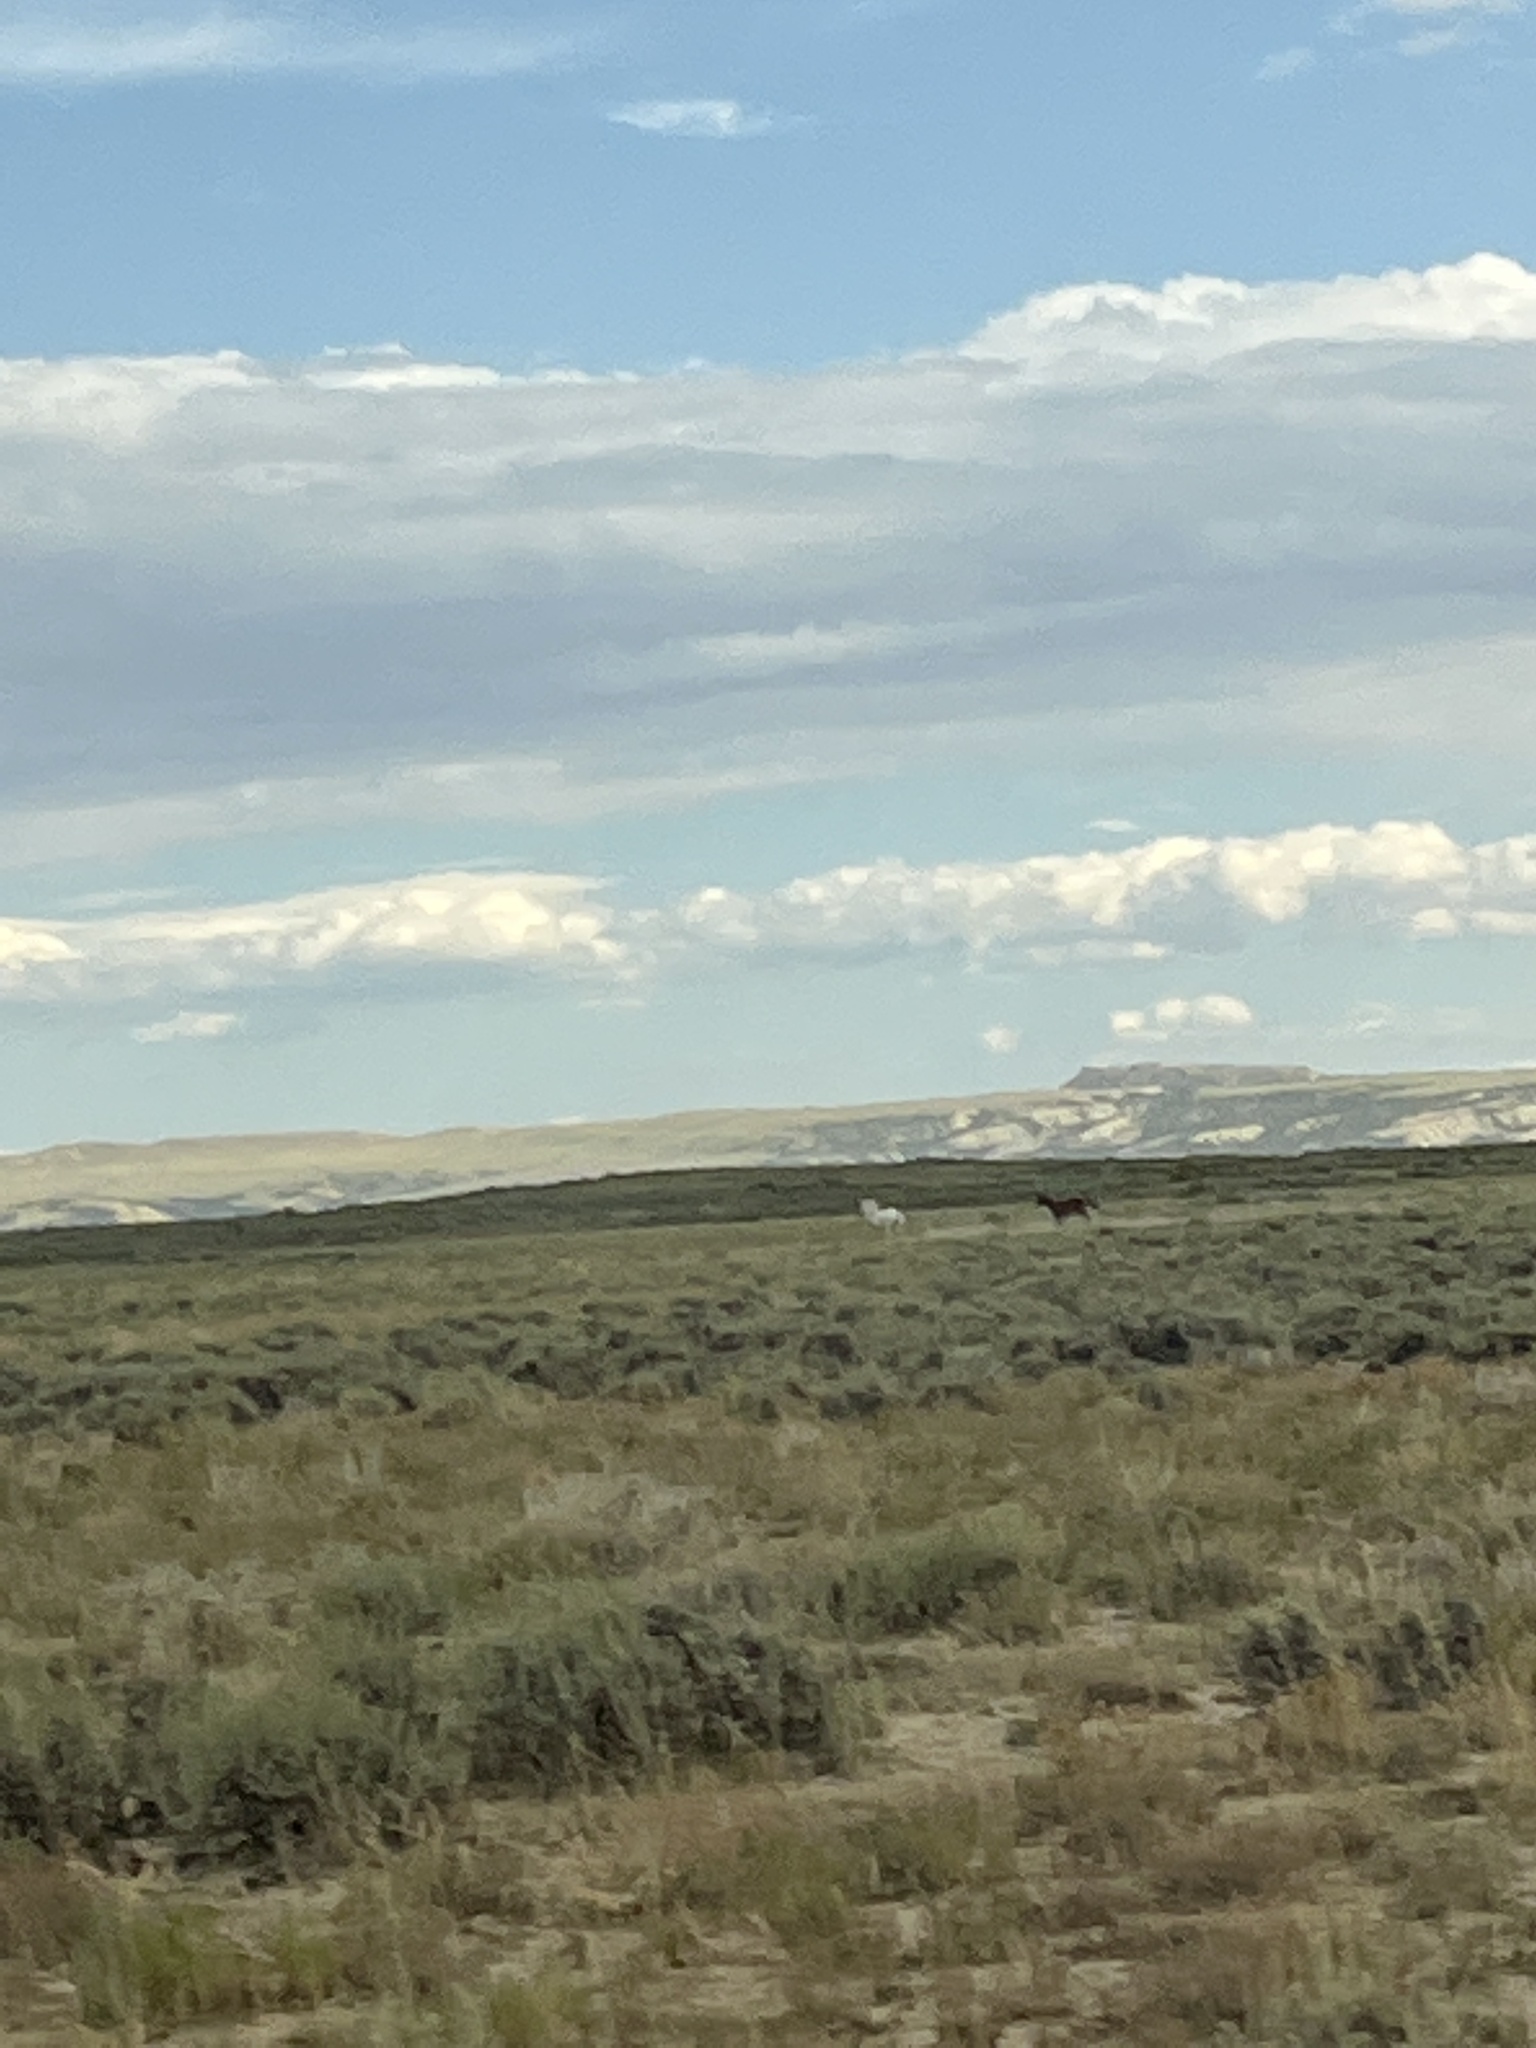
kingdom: Animalia
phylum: Chordata
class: Mammalia
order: Perissodactyla
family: Equidae
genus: Equus
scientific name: Equus caballus
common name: Horse
